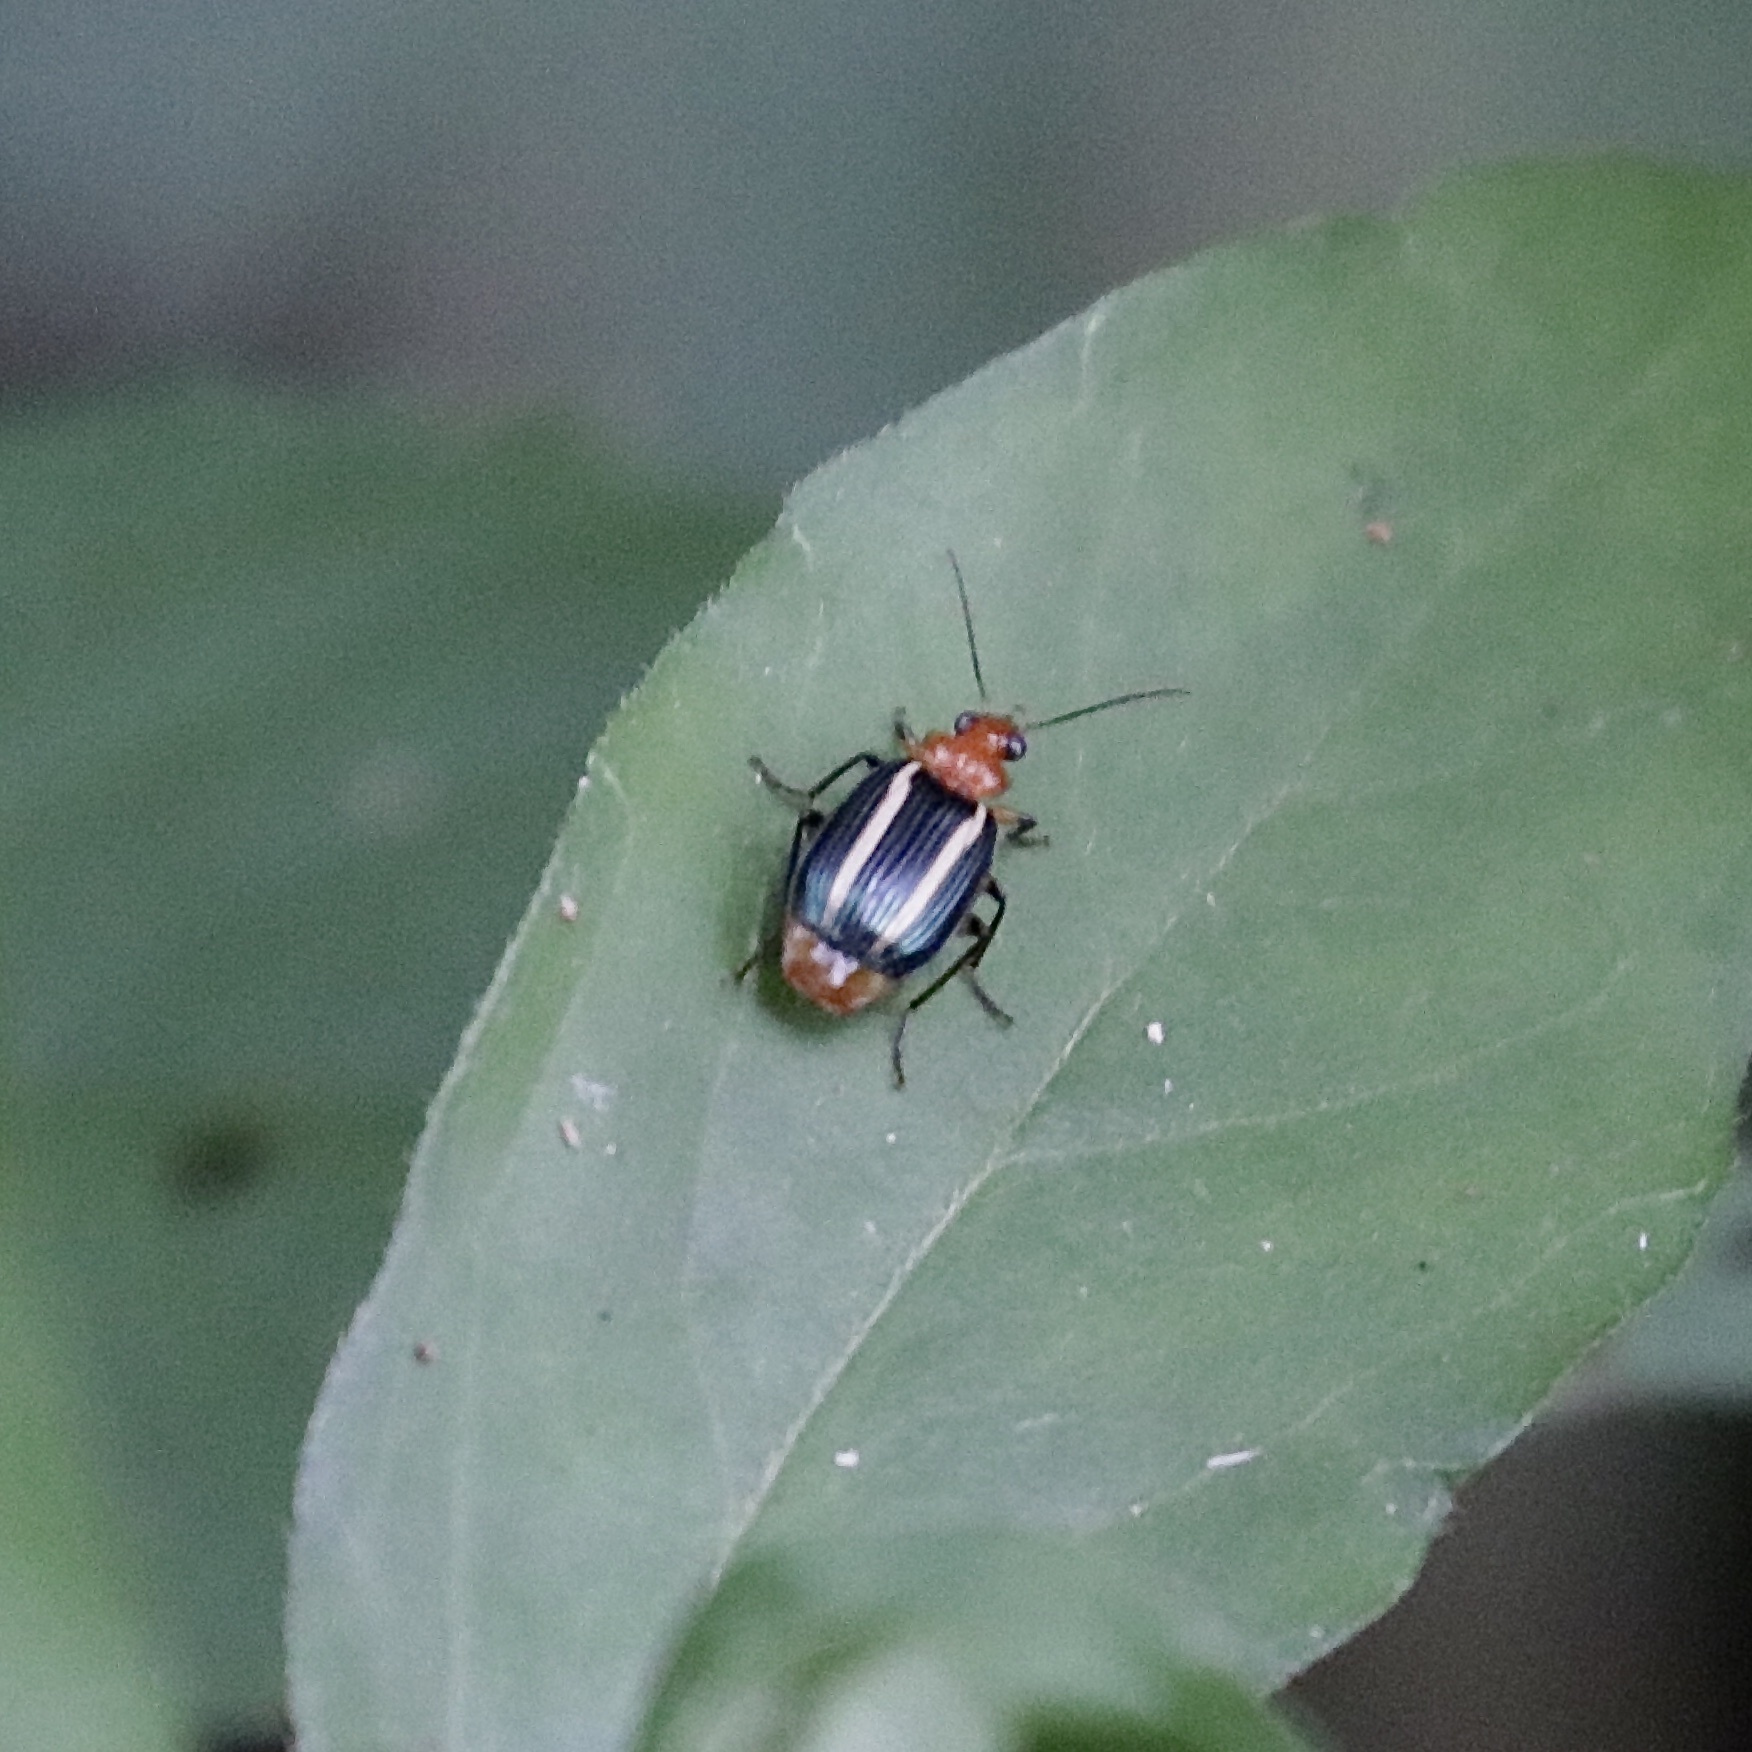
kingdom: Animalia
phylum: Arthropoda
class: Insecta
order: Coleoptera
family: Carabidae
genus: Lebia
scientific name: Lebia eburata
